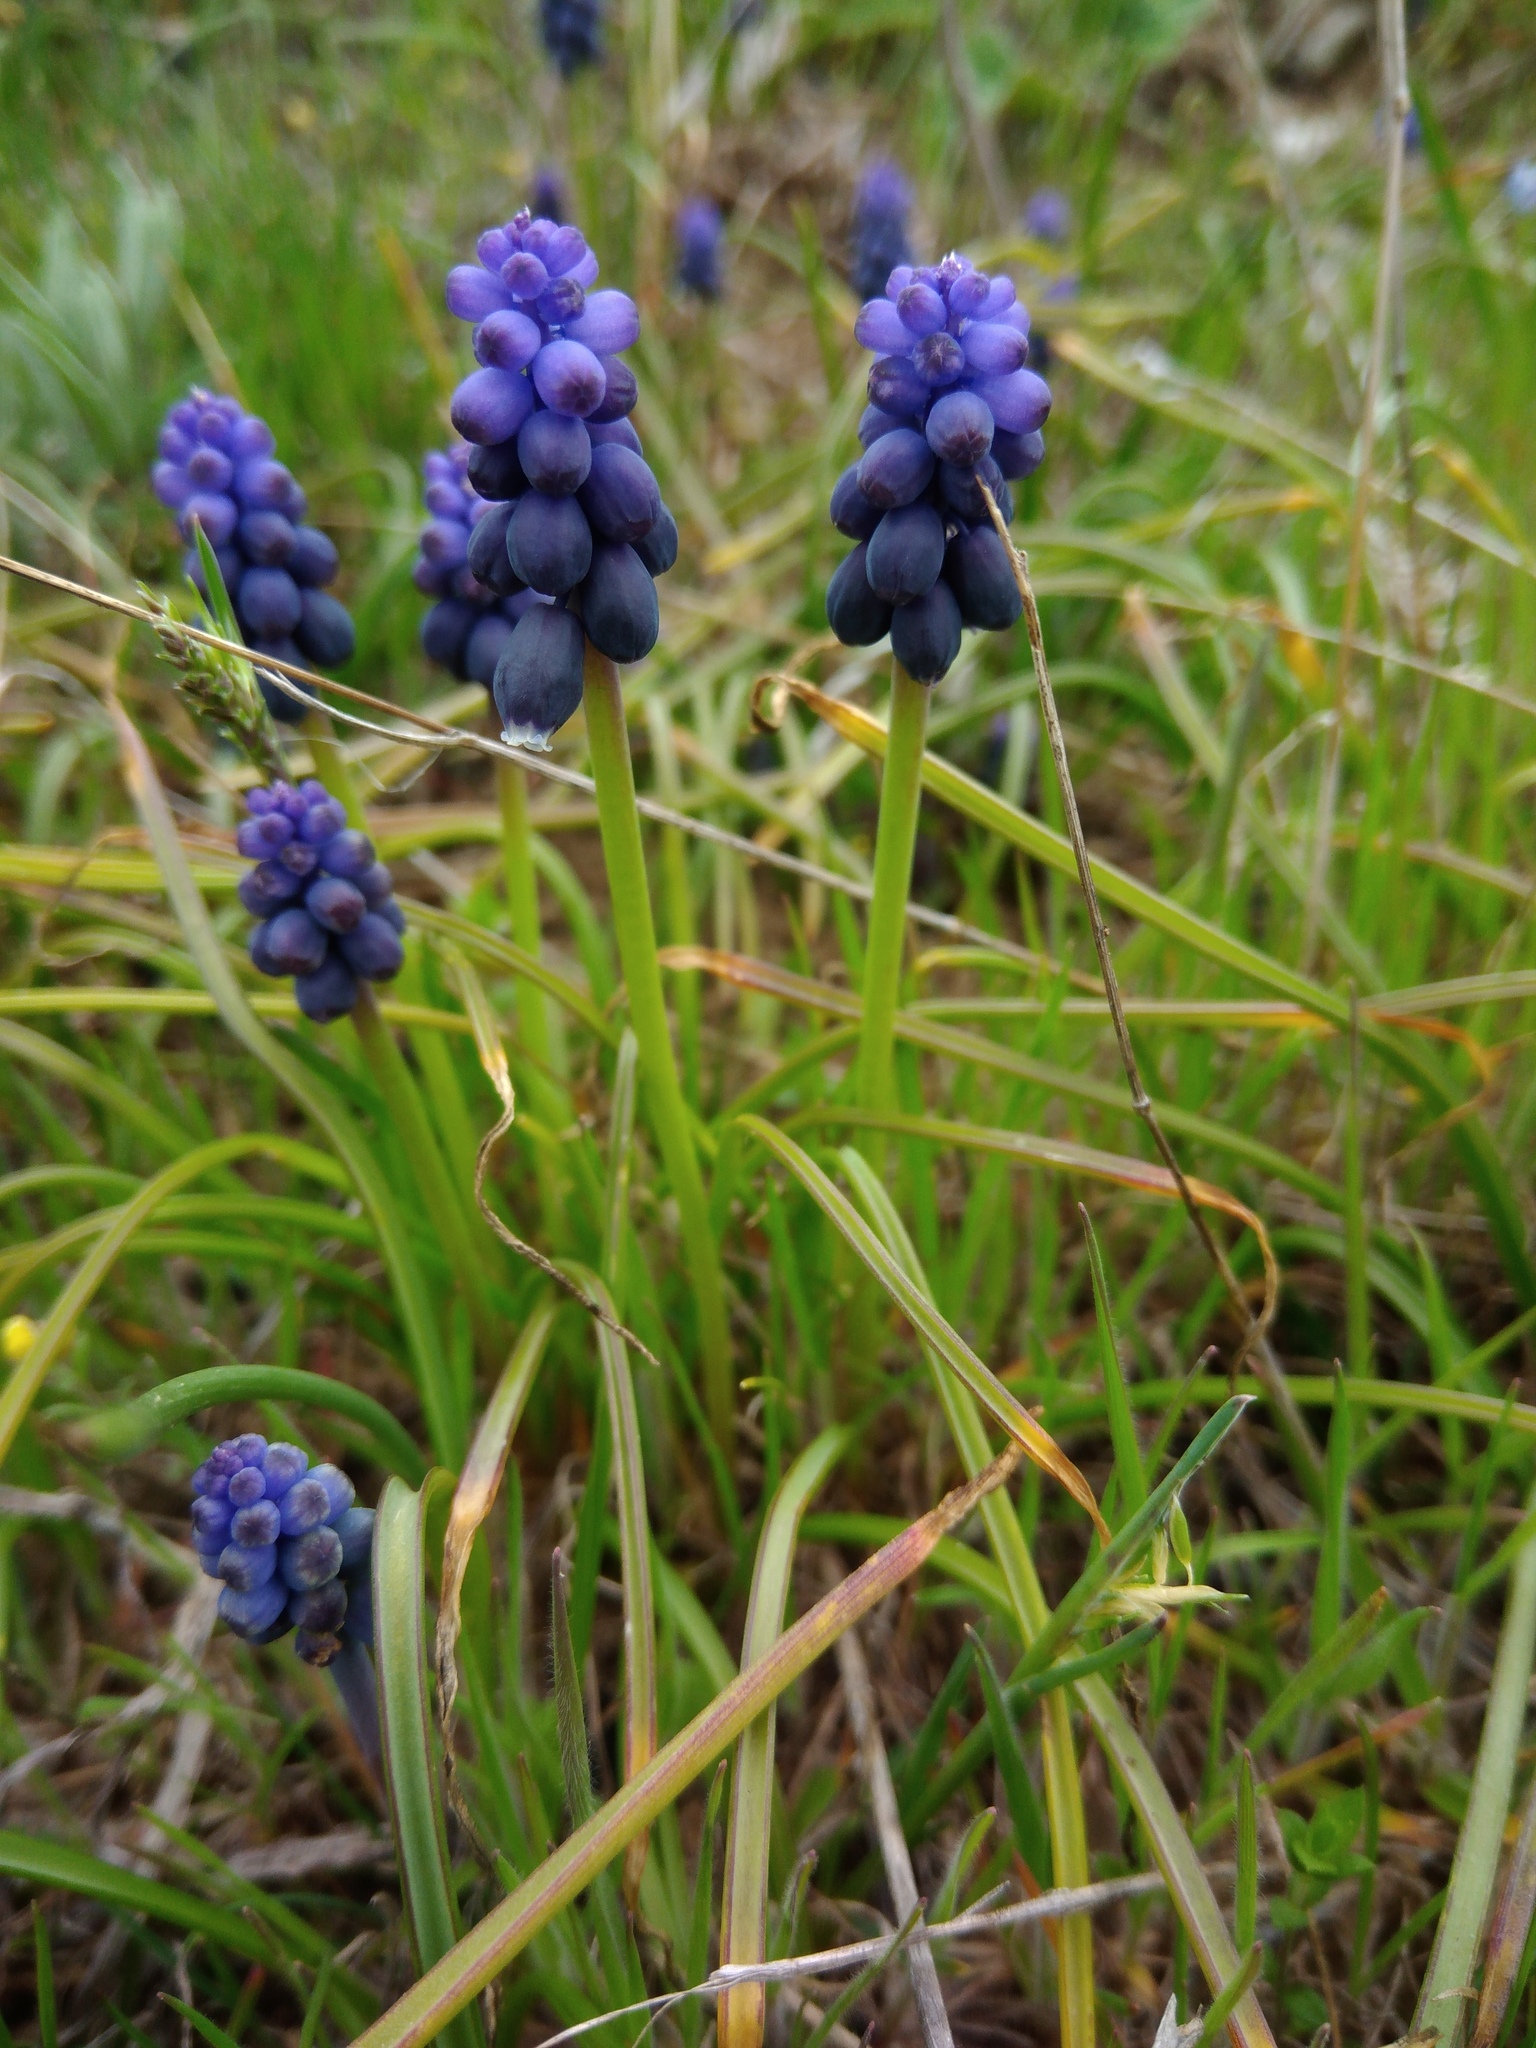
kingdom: Plantae
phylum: Tracheophyta
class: Liliopsida
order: Asparagales
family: Asparagaceae
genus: Muscari
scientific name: Muscari neglectum
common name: Grape-hyacinth
